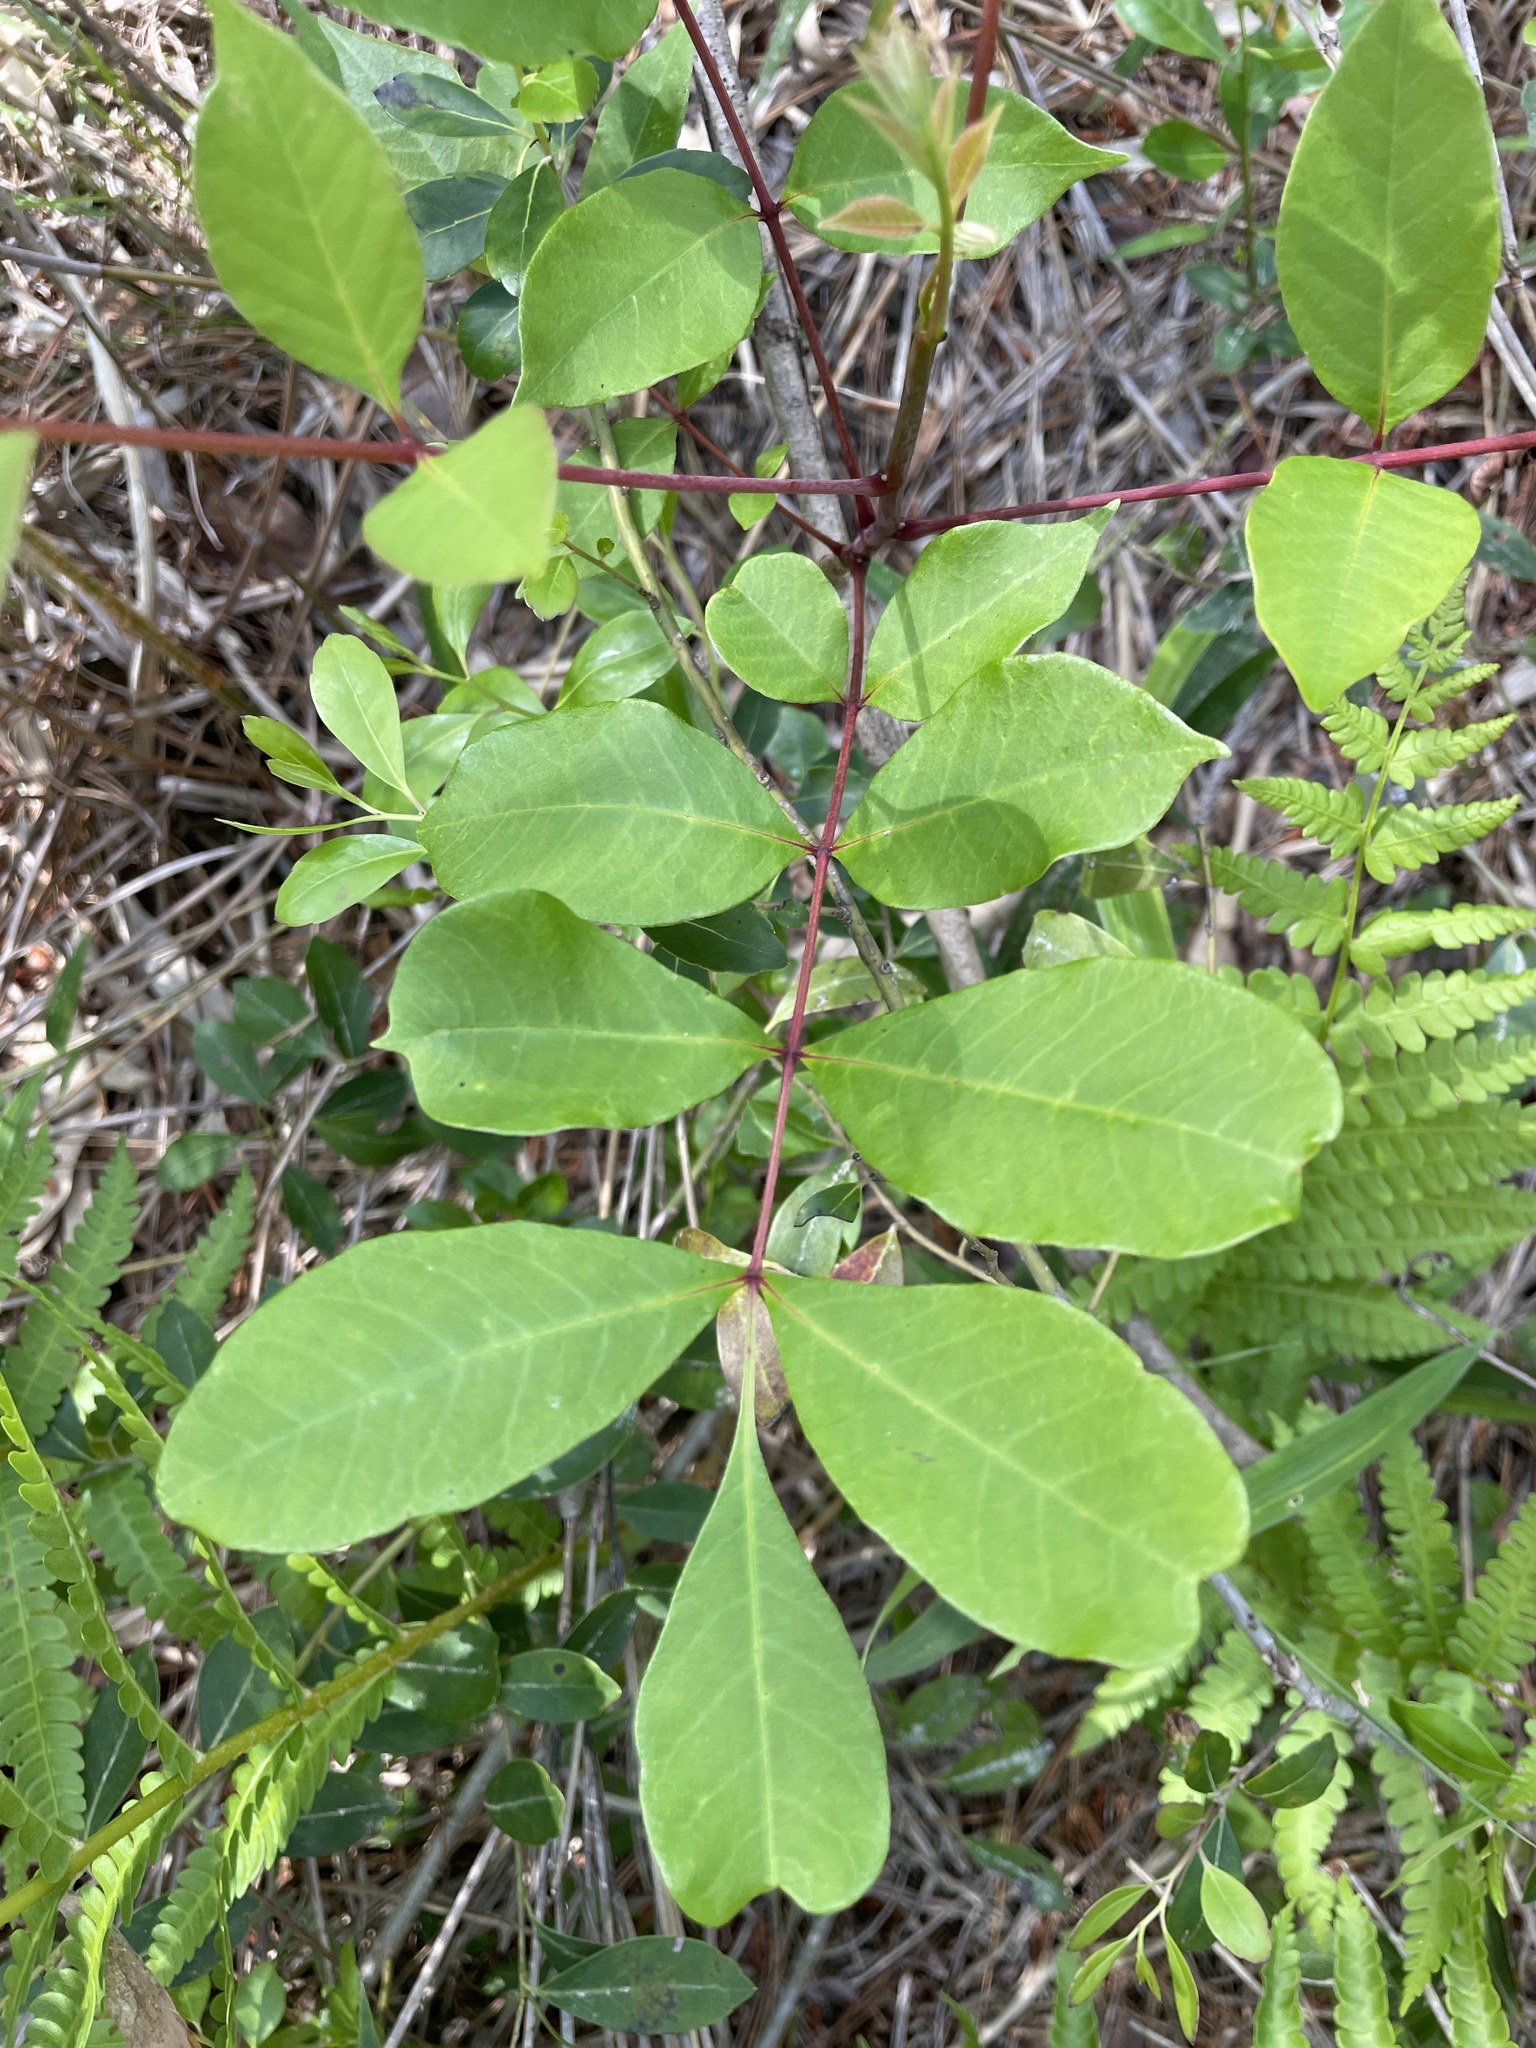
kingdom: Plantae
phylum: Tracheophyta
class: Magnoliopsida
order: Sapindales
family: Anacardiaceae
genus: Toxicodendron
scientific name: Toxicodendron vernix
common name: Poison sumac
